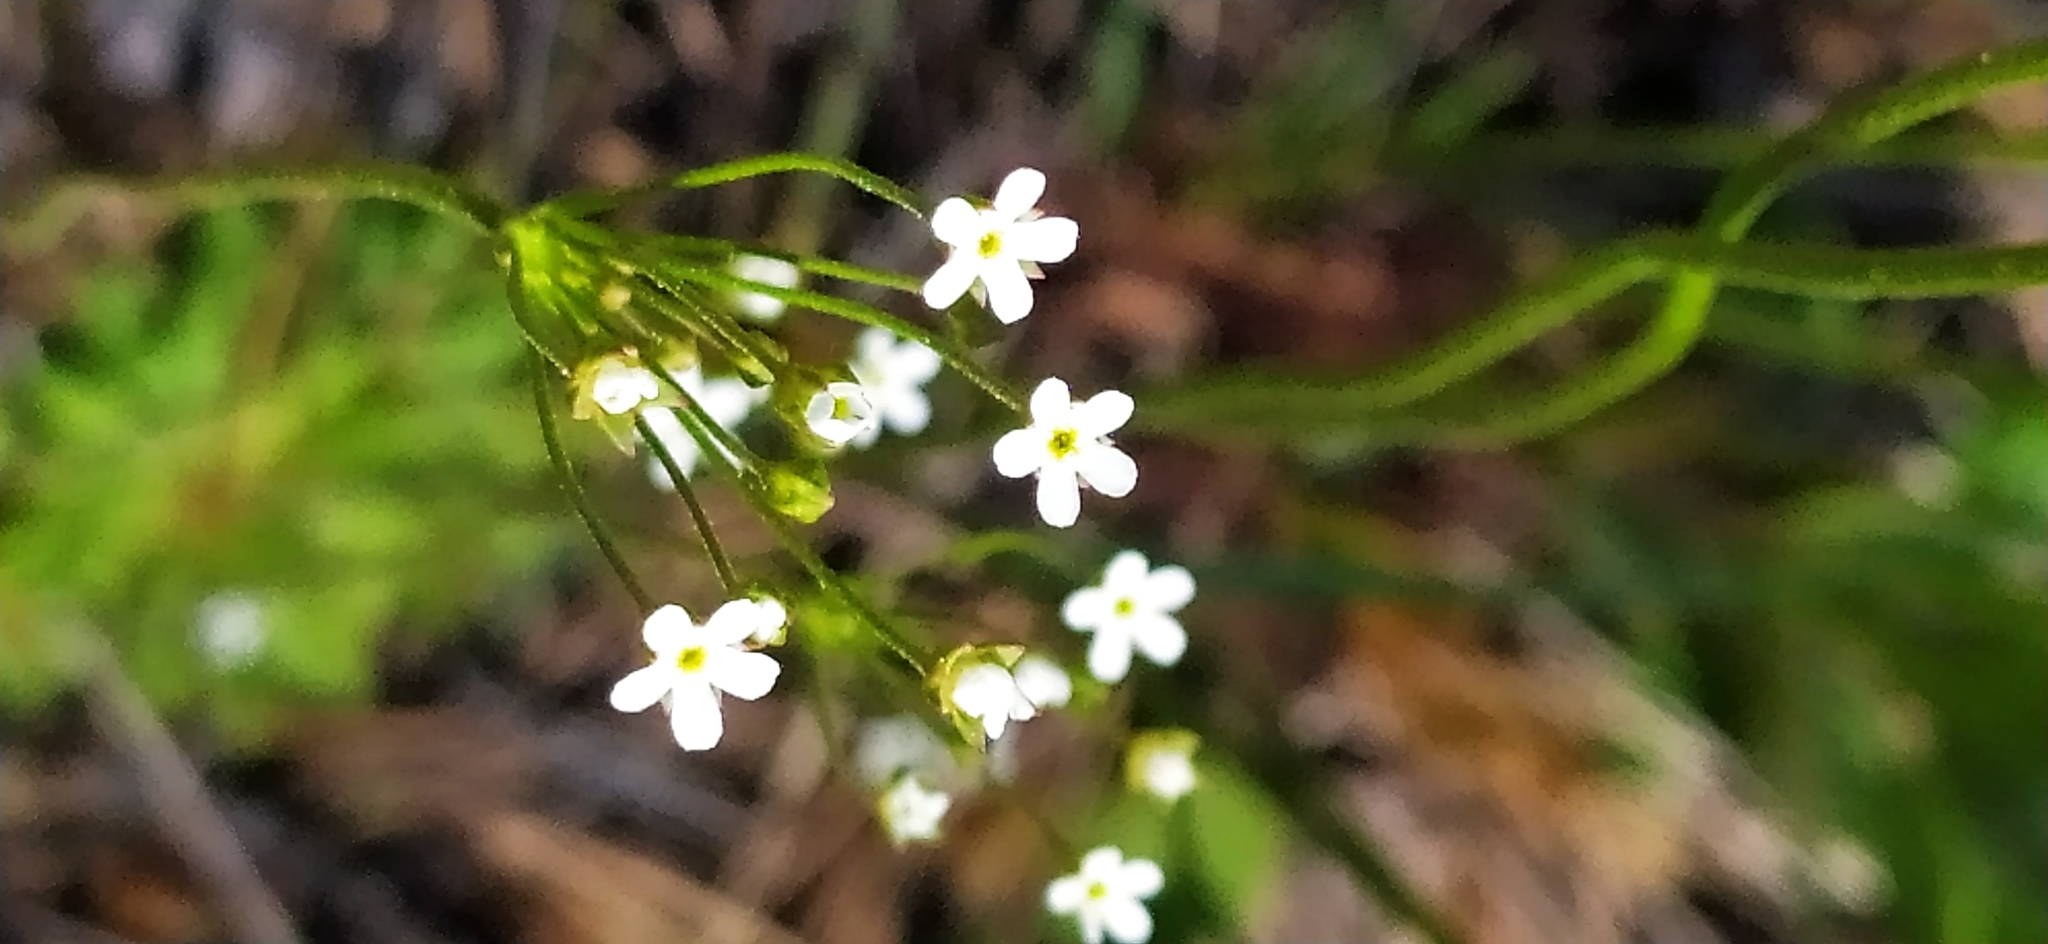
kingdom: Plantae
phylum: Tracheophyta
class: Magnoliopsida
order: Ericales
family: Primulaceae
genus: Androsace
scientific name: Androsace septentrionalis
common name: Hairy northern fairy-candelabra
